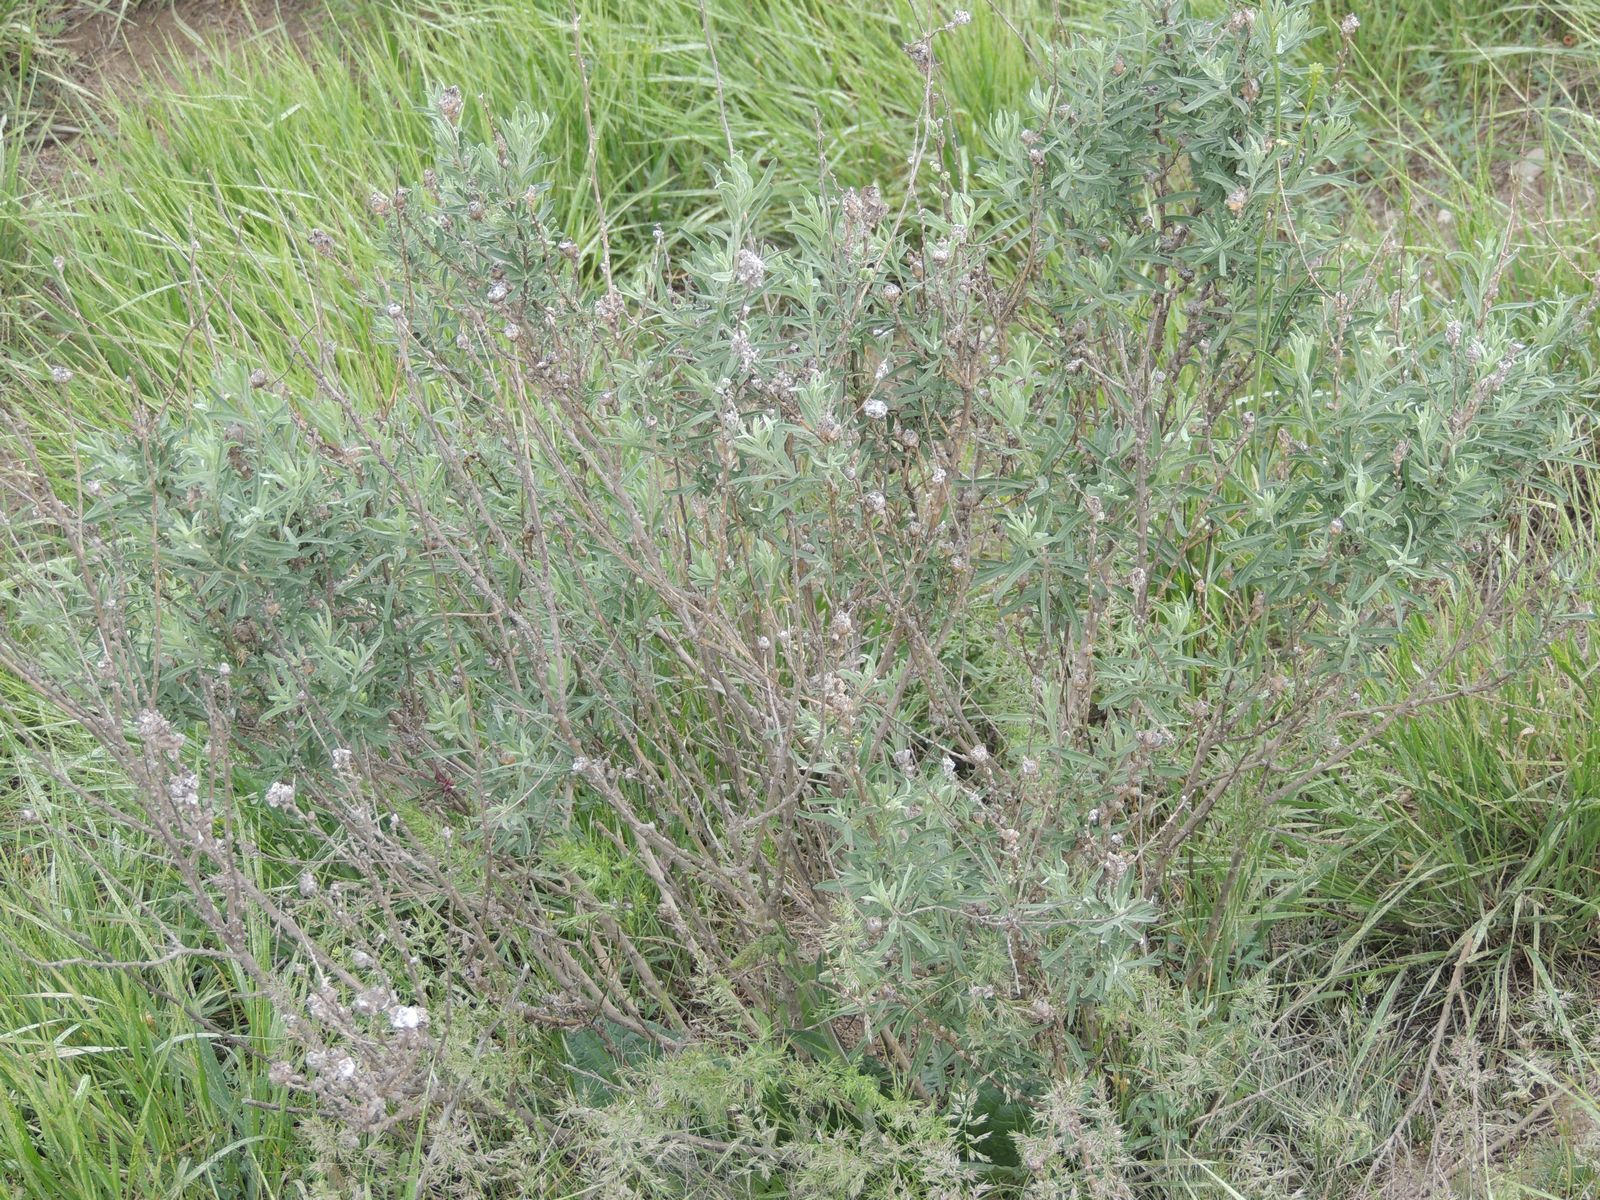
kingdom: Plantae
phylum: Tracheophyta
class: Magnoliopsida
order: Fabales
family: Fabaceae
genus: Astragalus
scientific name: Astragalus brachylobus
